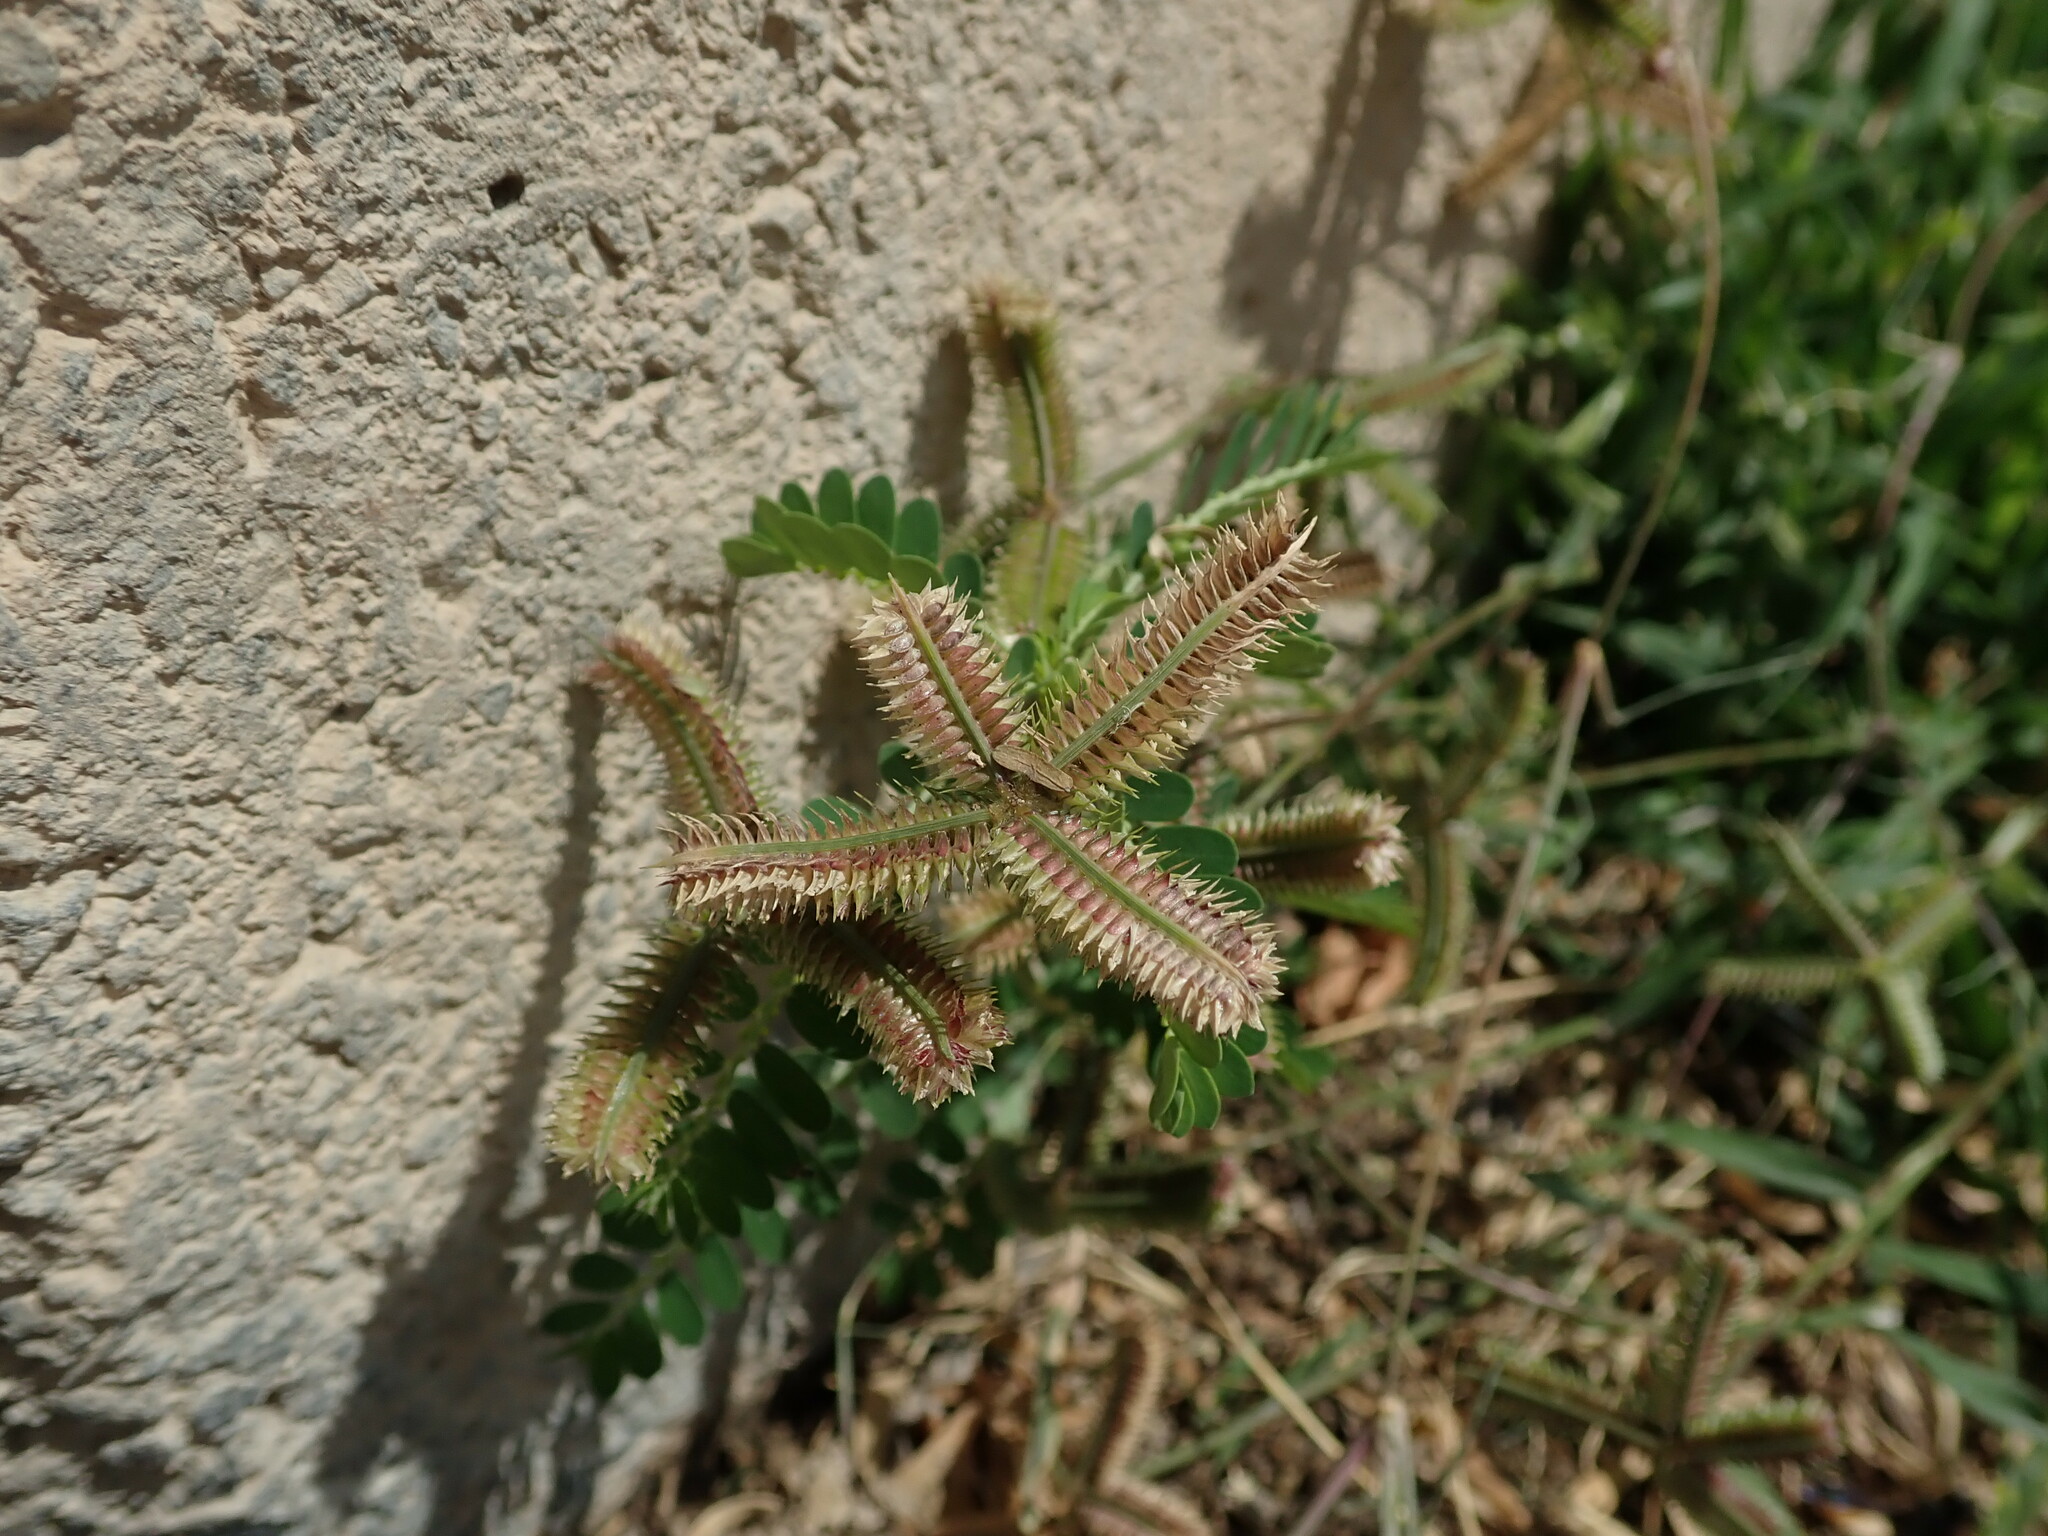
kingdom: Plantae
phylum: Tracheophyta
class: Liliopsida
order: Poales
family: Poaceae
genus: Dactyloctenium
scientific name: Dactyloctenium aegyptium
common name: Egyptian grass
